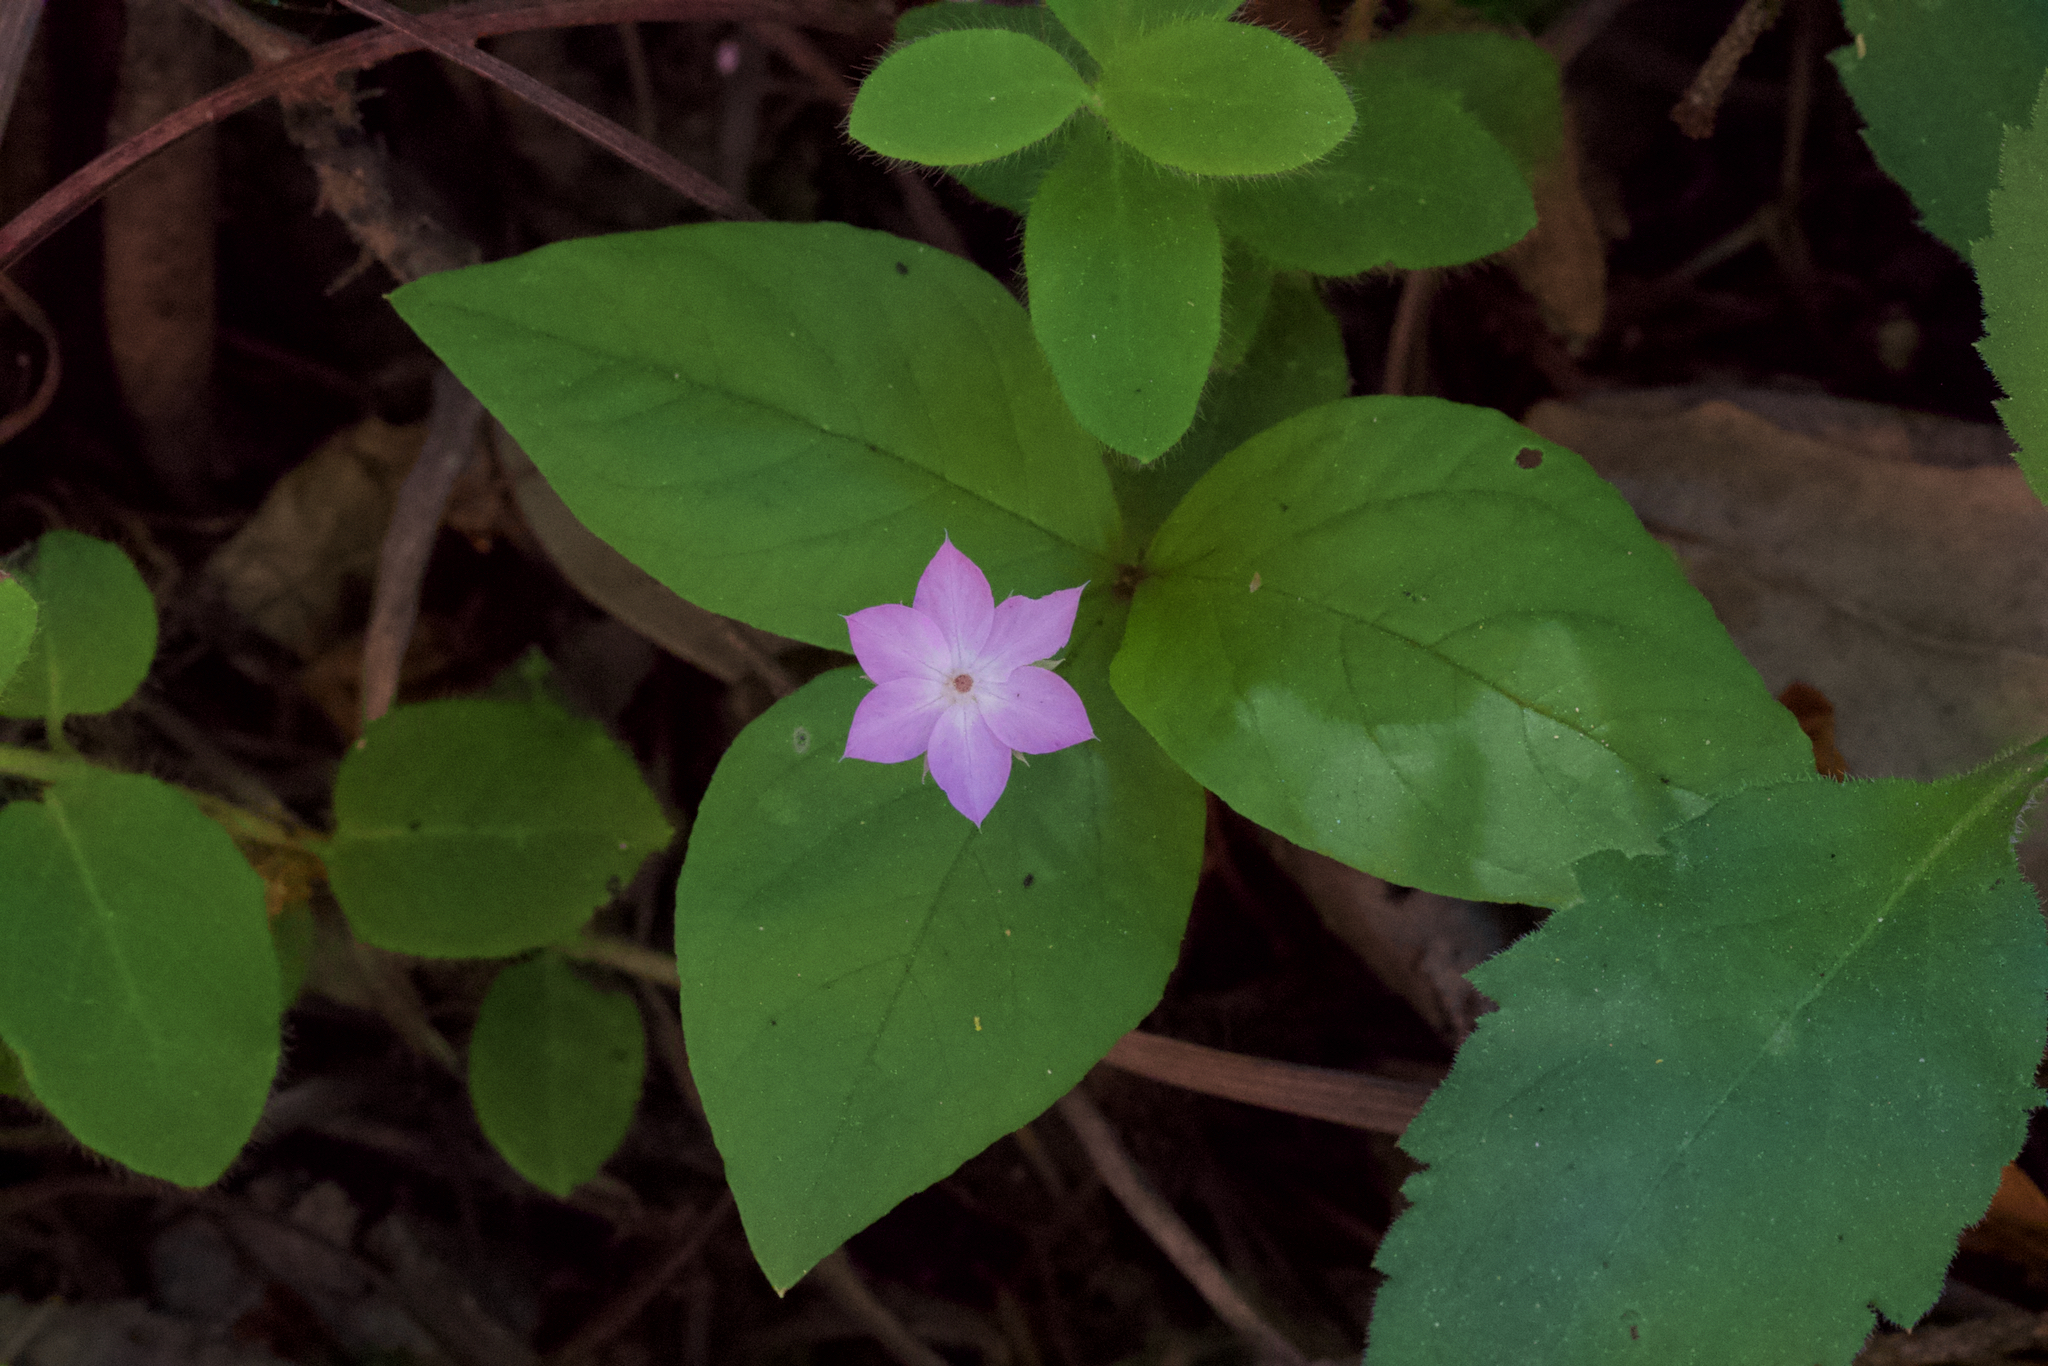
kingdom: Plantae
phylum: Tracheophyta
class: Magnoliopsida
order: Ericales
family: Primulaceae
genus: Lysimachia
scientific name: Lysimachia latifolia
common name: Pacific starflower
